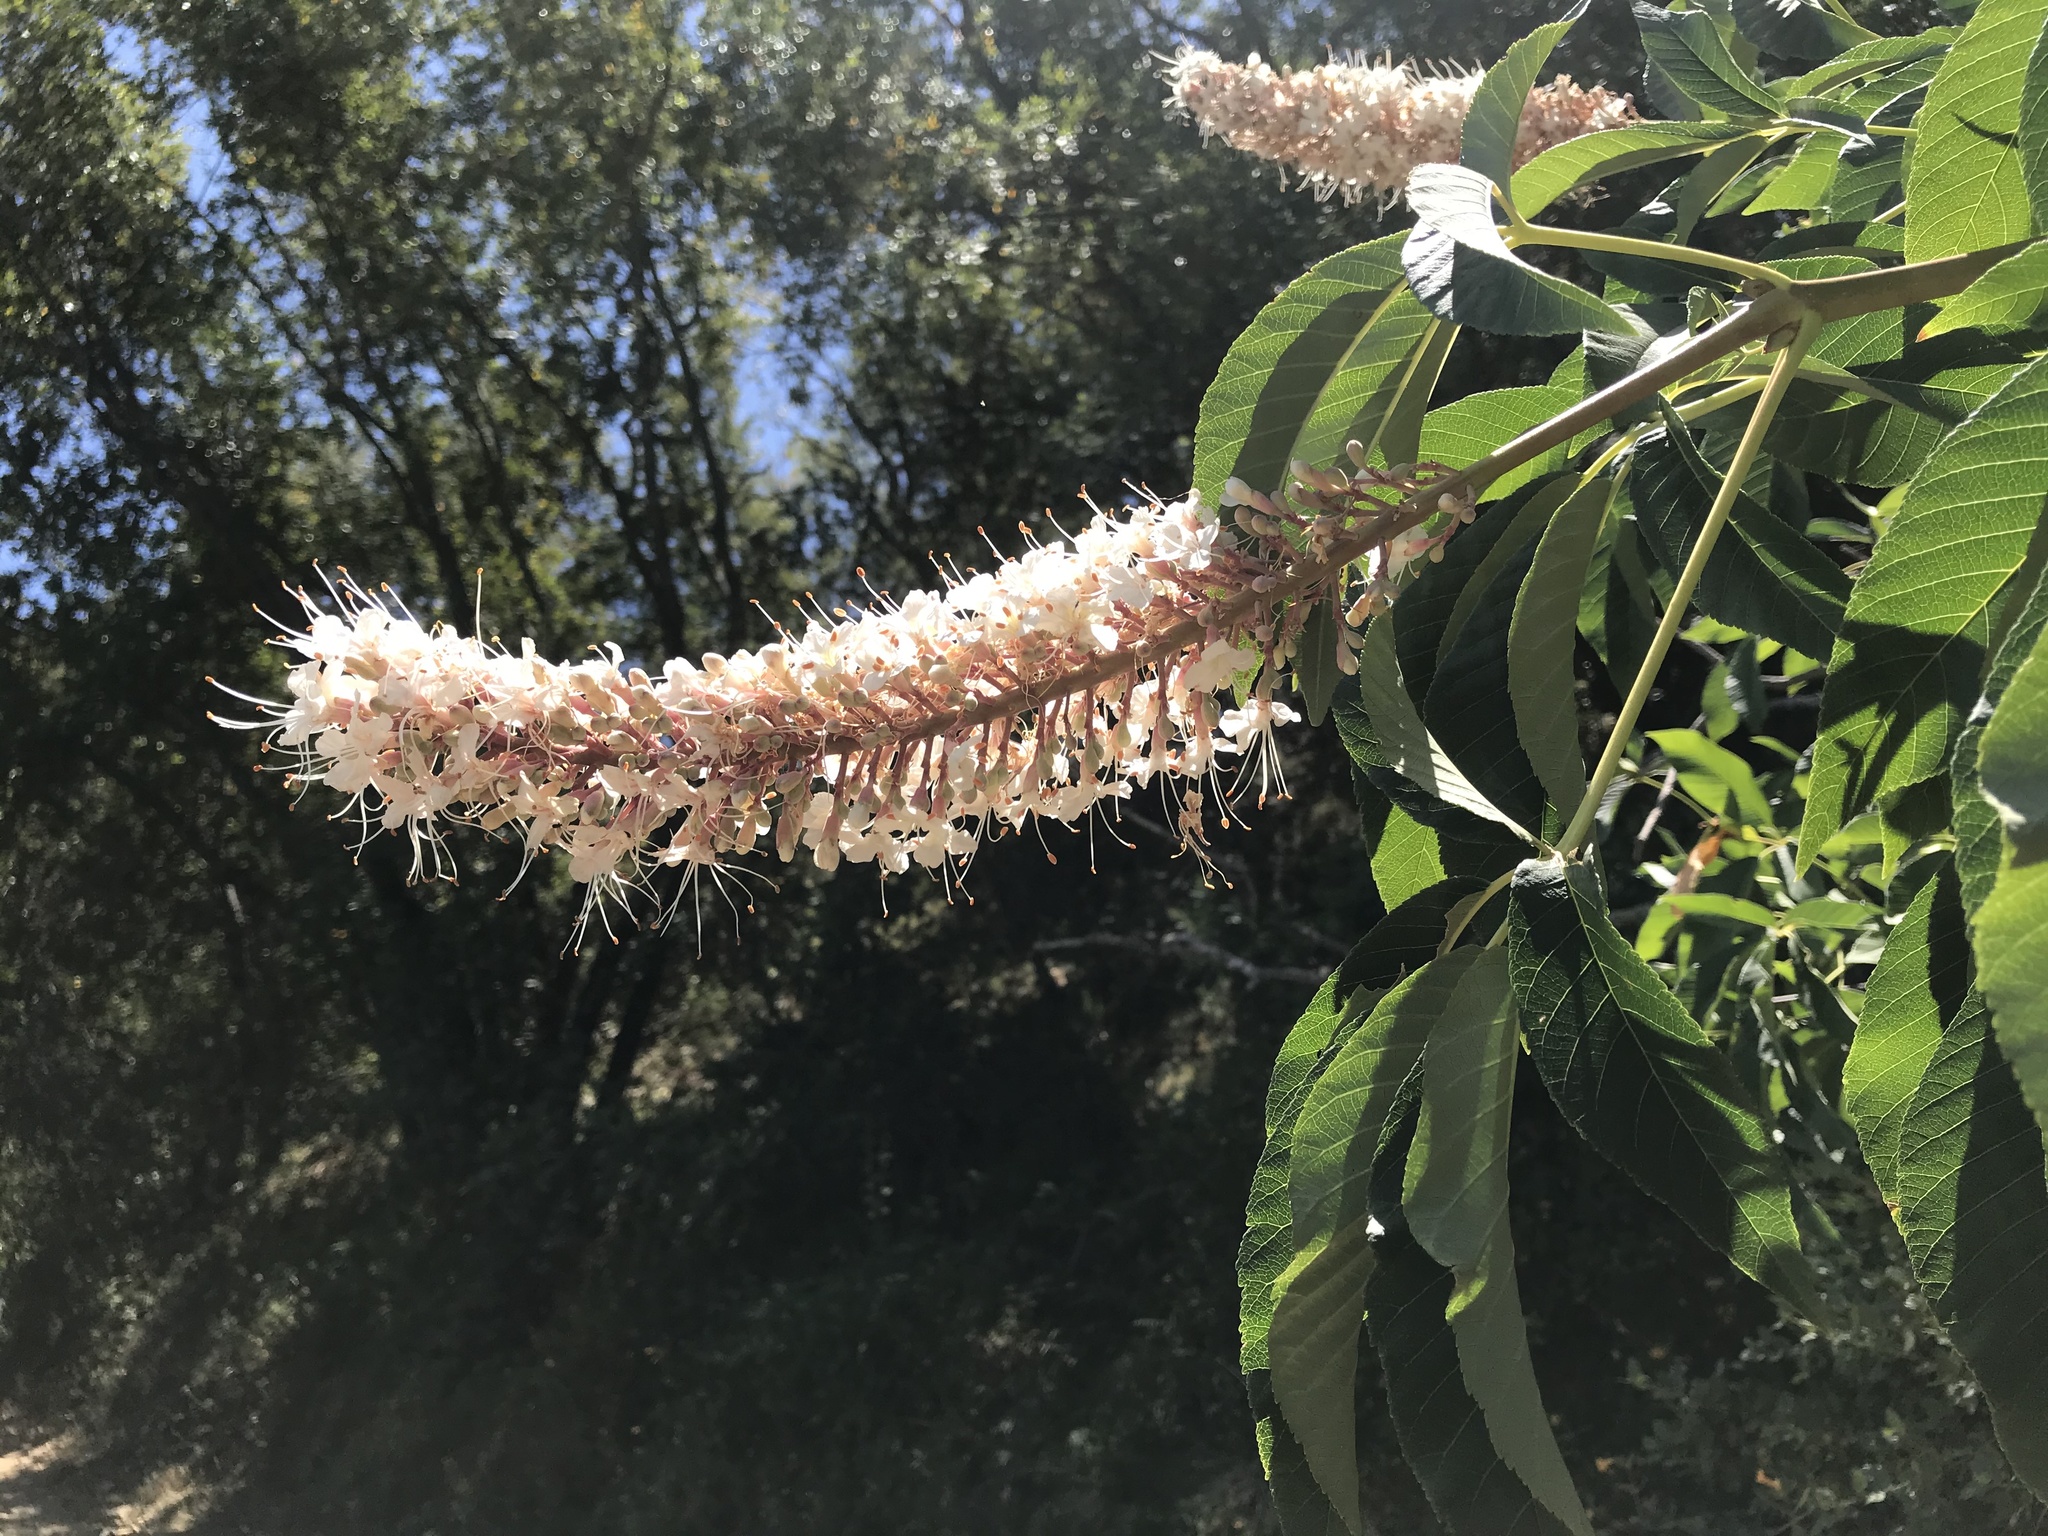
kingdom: Plantae
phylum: Tracheophyta
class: Magnoliopsida
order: Sapindales
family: Sapindaceae
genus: Aesculus
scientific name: Aesculus californica
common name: California buckeye
